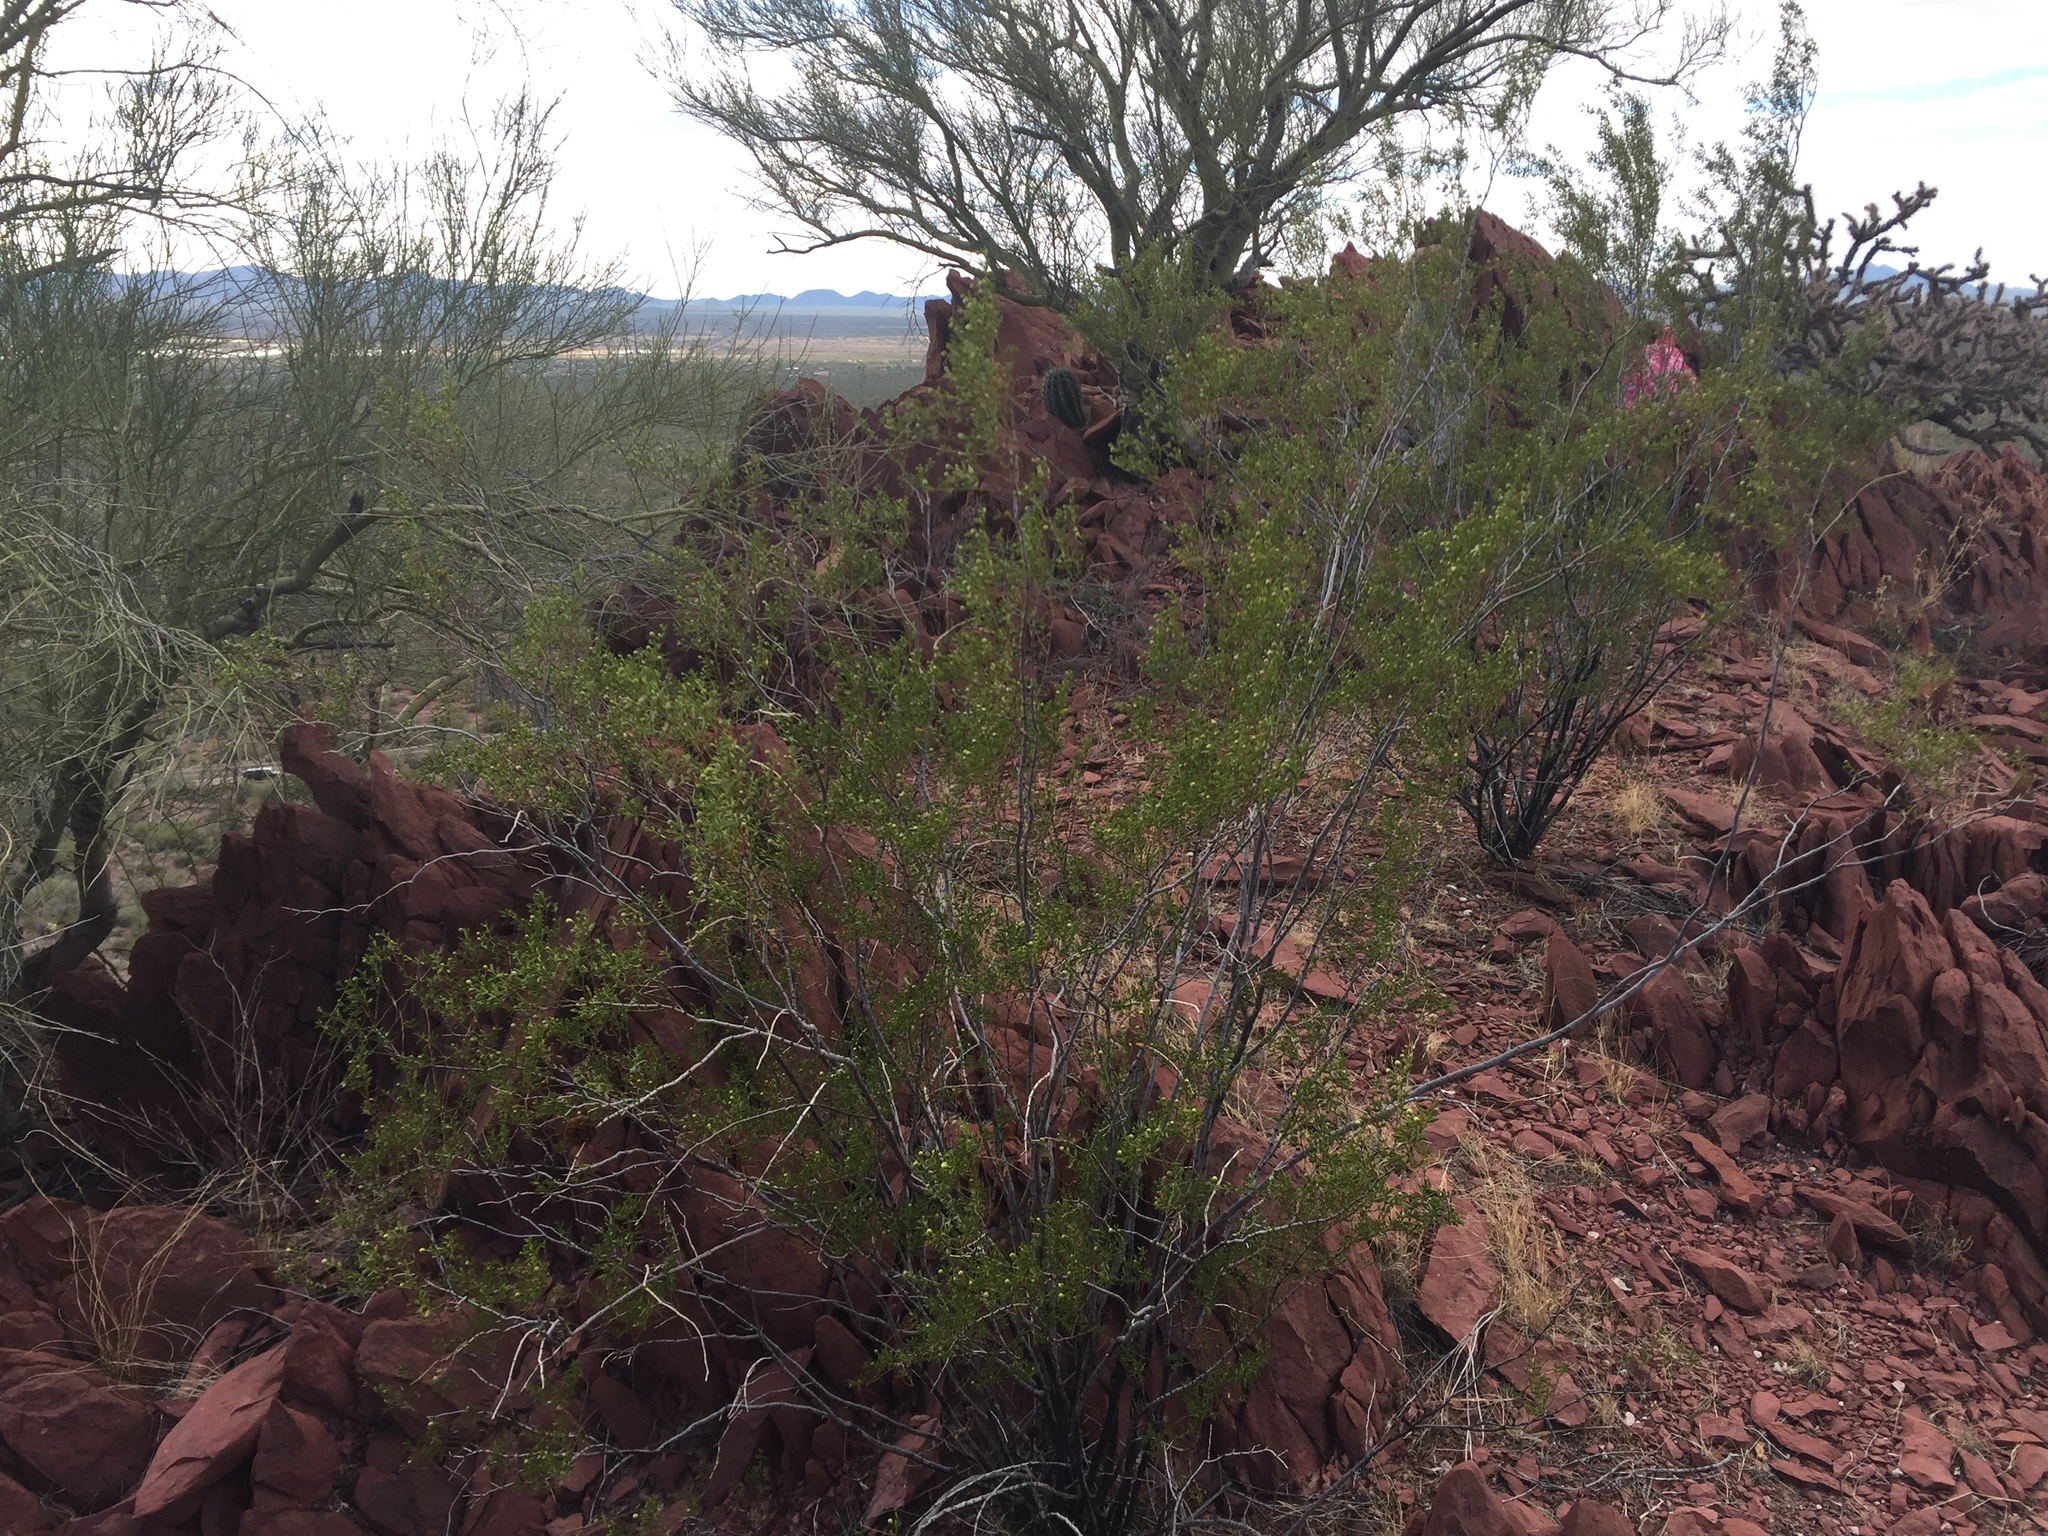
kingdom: Plantae
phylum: Tracheophyta
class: Magnoliopsida
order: Zygophyllales
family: Zygophyllaceae
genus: Larrea
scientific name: Larrea tridentata
